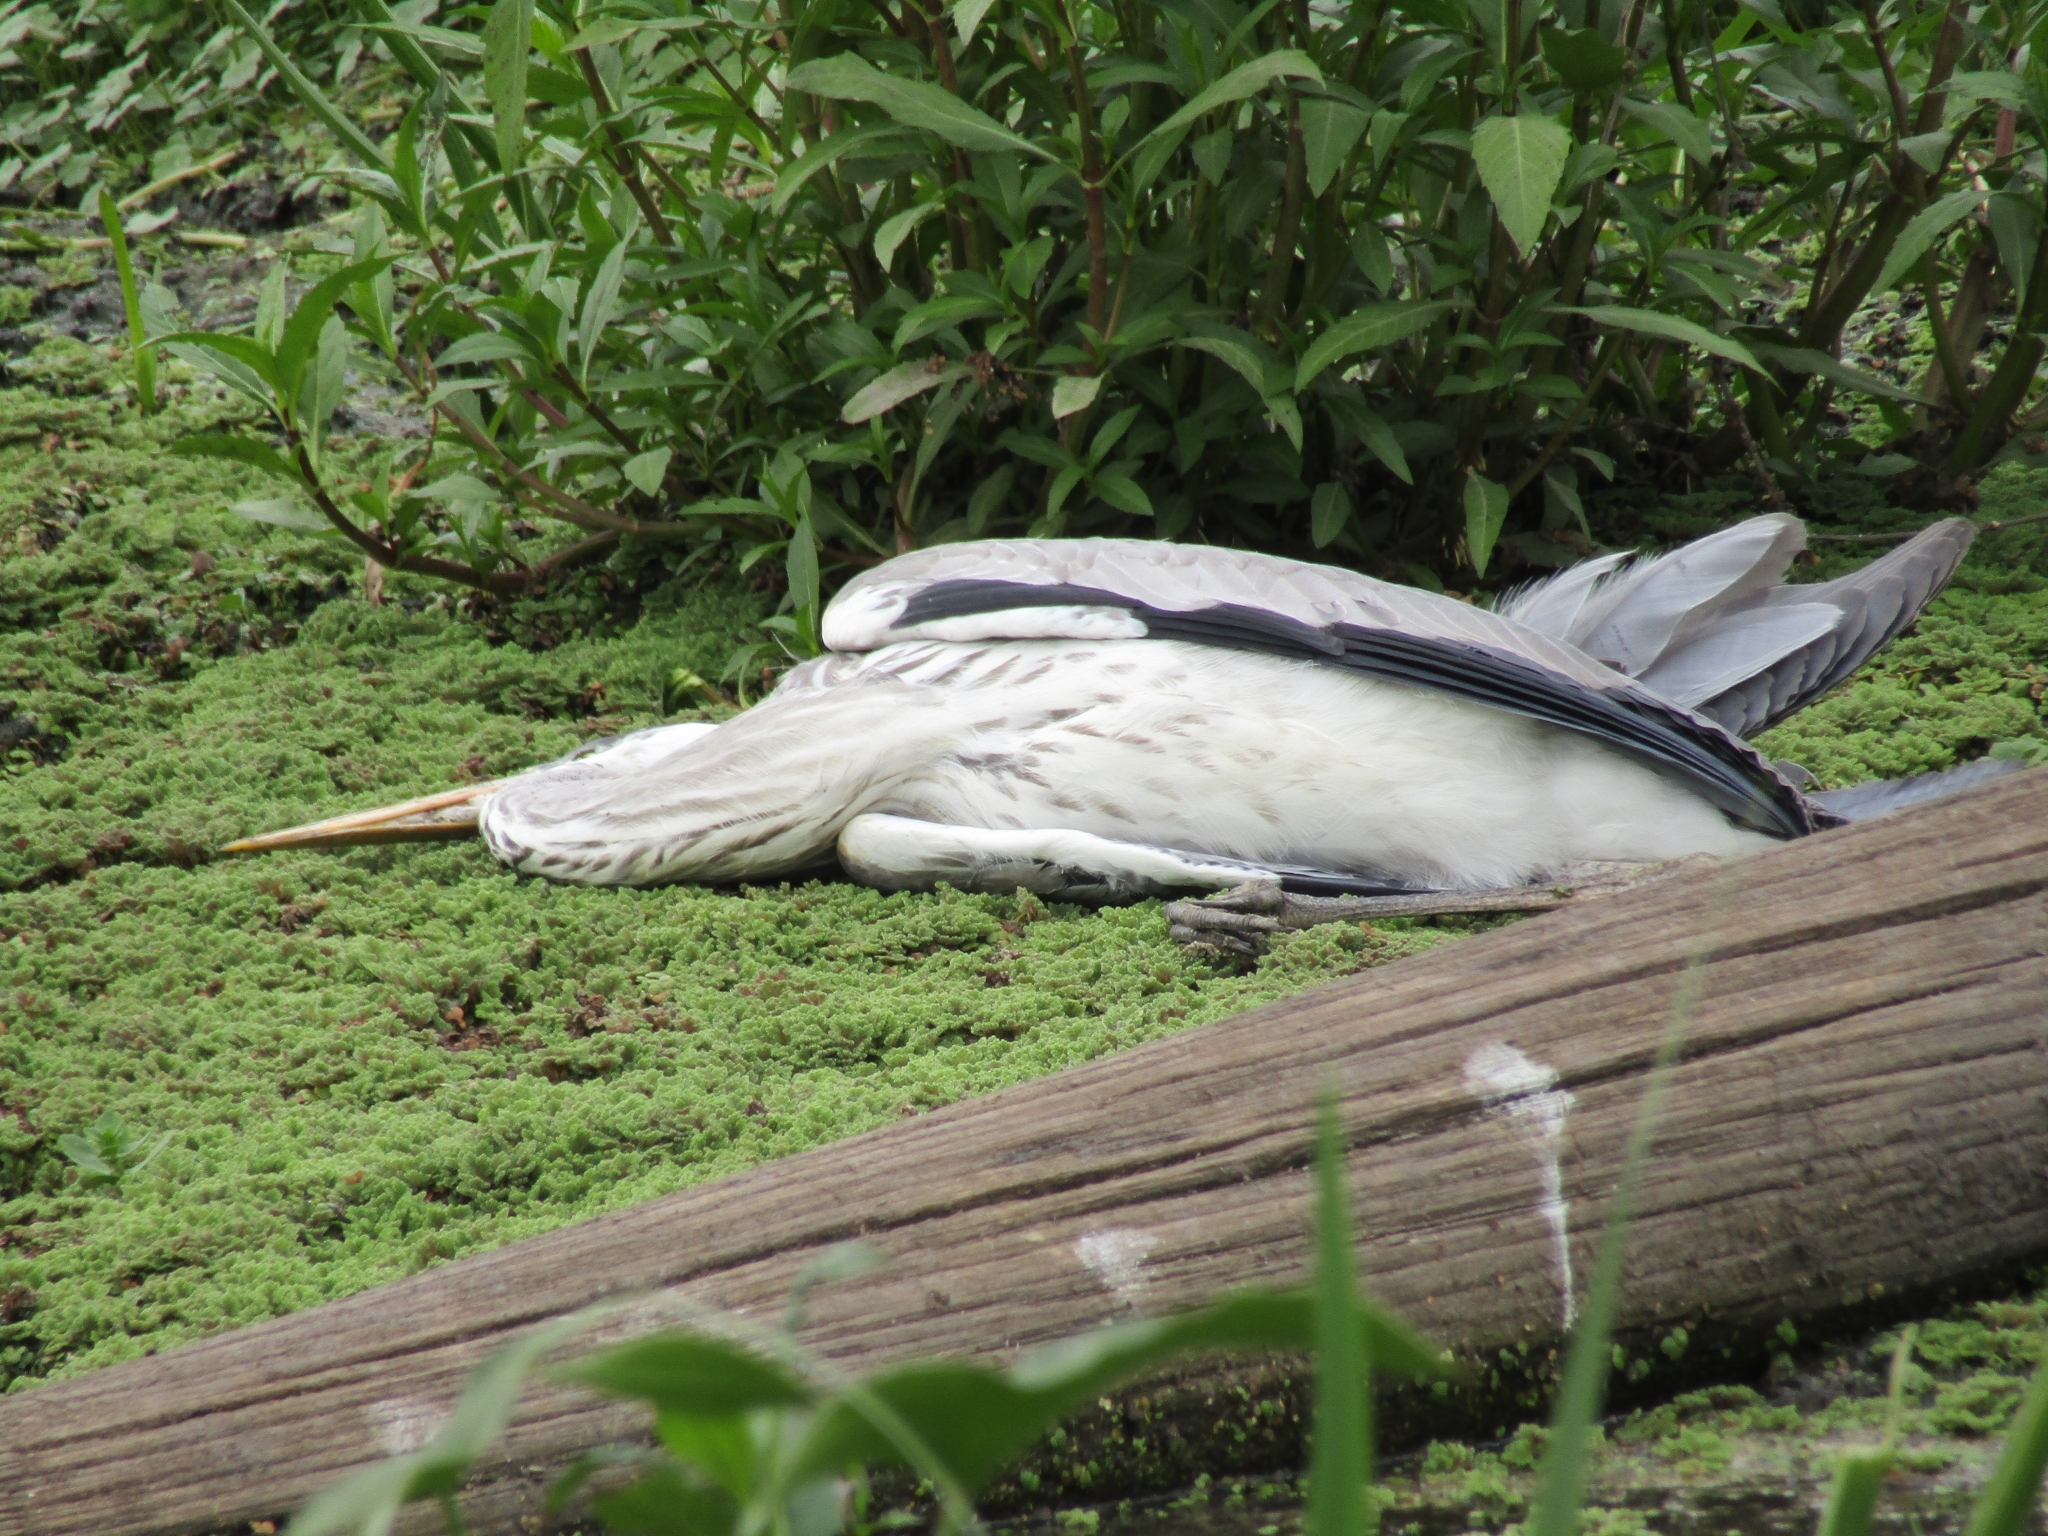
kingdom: Animalia
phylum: Chordata
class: Aves
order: Pelecaniformes
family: Ardeidae
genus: Ardea
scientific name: Ardea cocoi
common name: Cocoi heron
